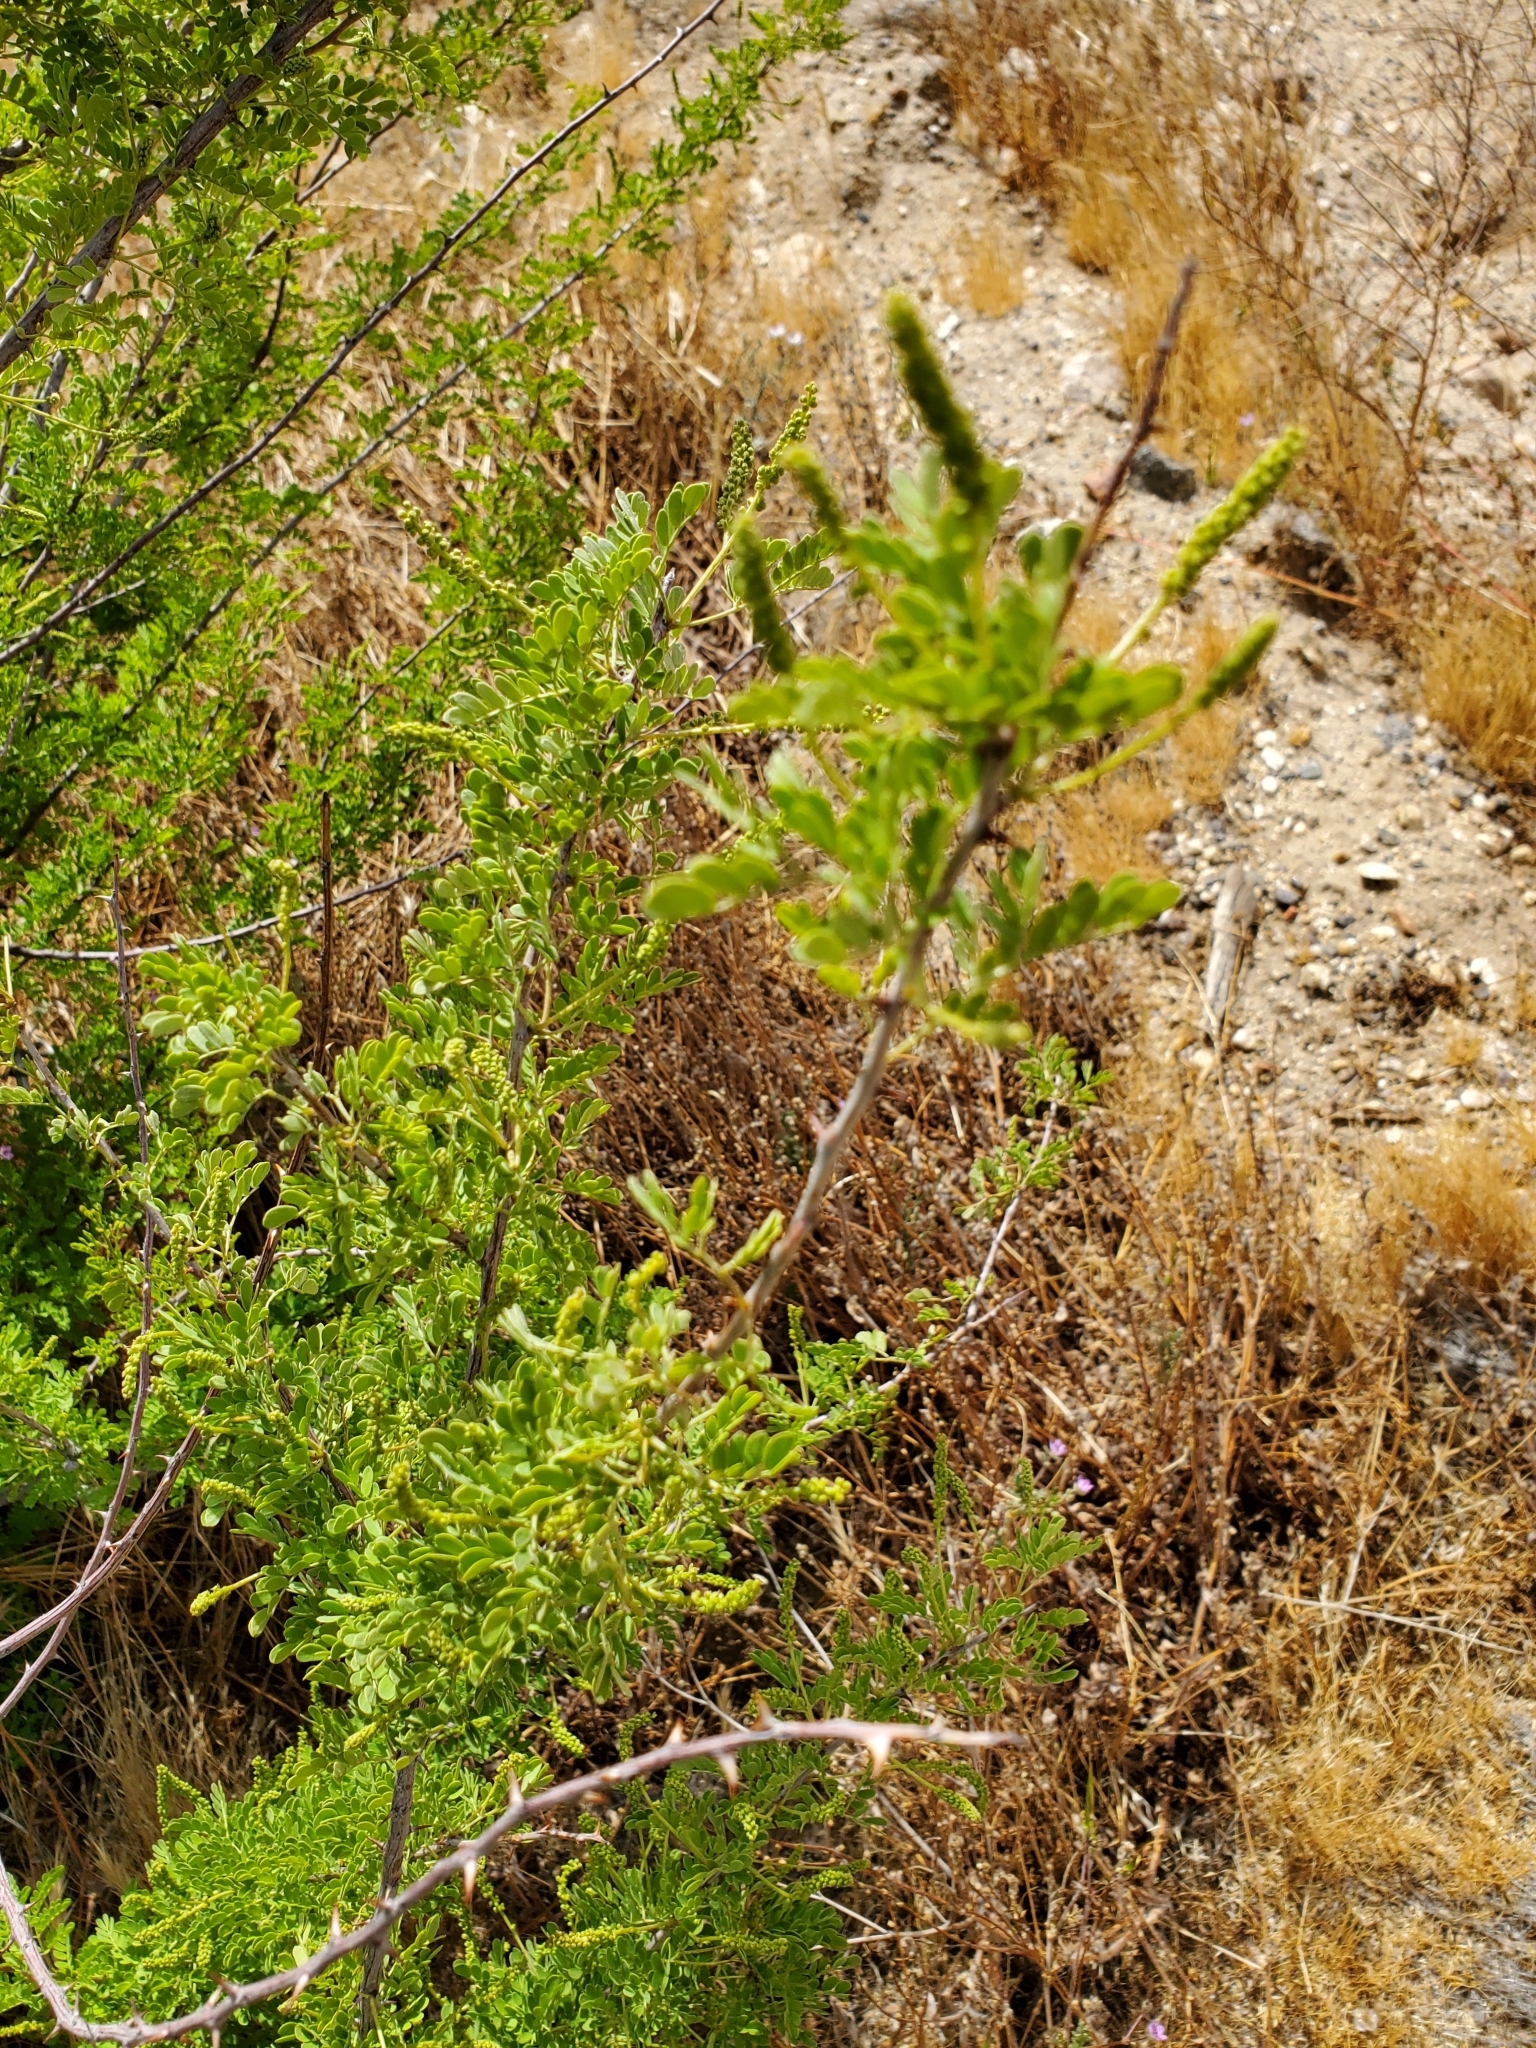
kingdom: Plantae
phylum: Tracheophyta
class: Magnoliopsida
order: Fabales
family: Fabaceae
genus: Senegalia
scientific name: Senegalia greggii
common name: Texas-mimosa
